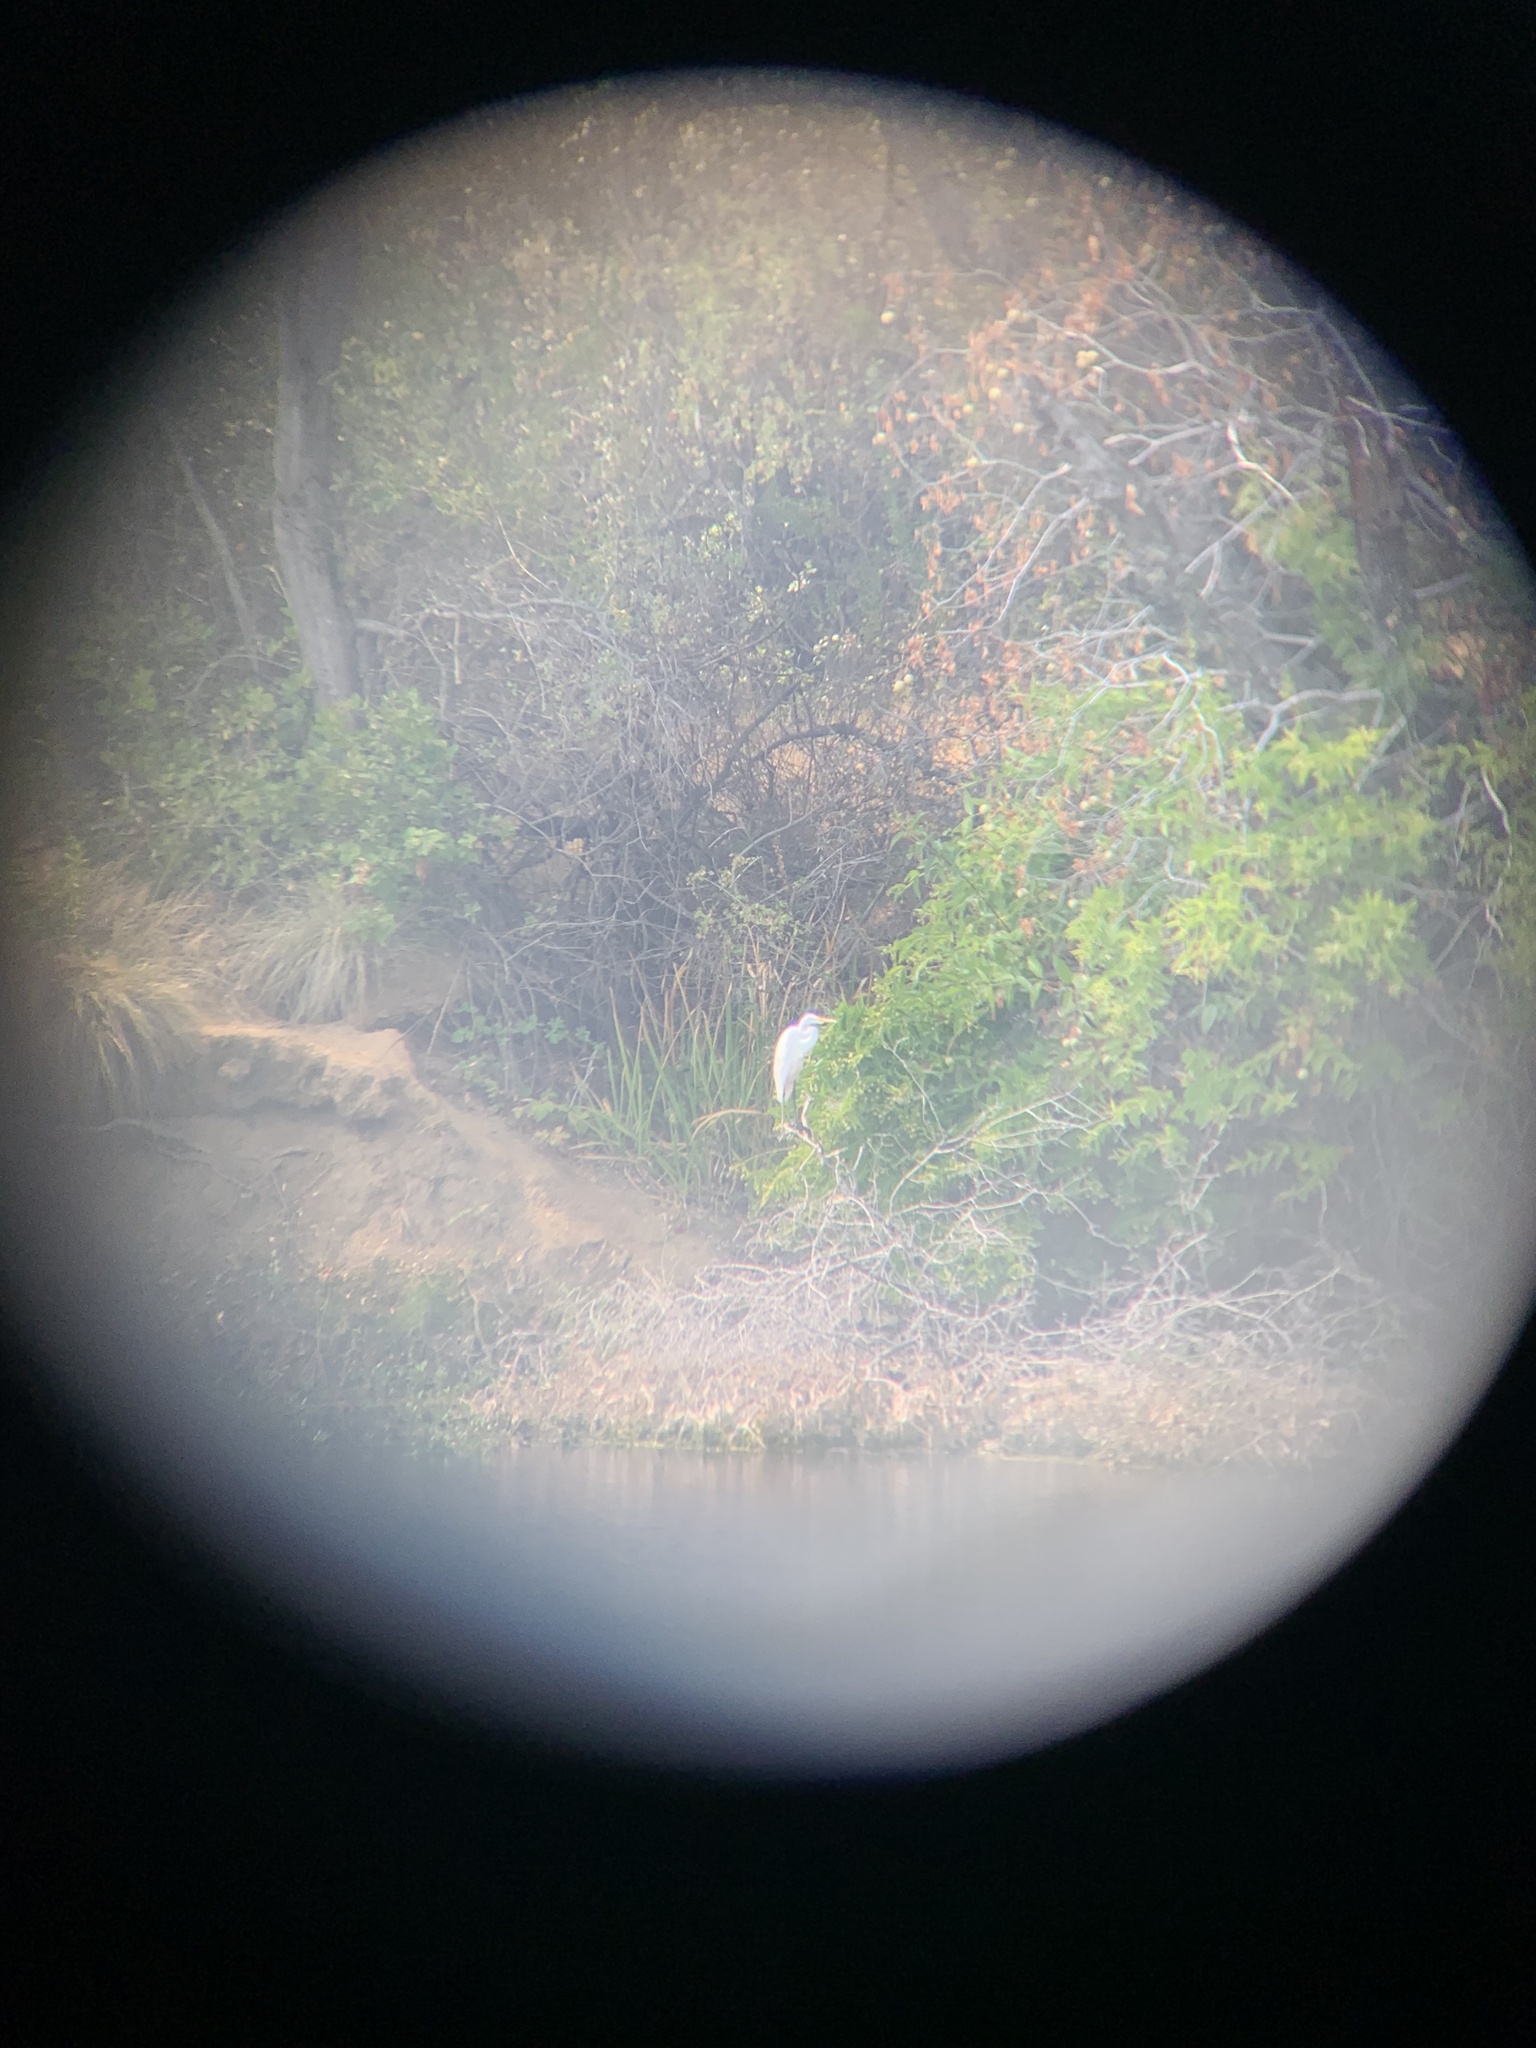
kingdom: Animalia
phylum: Chordata
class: Aves
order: Pelecaniformes
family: Ardeidae
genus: Ardea
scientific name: Ardea alba
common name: Great egret
